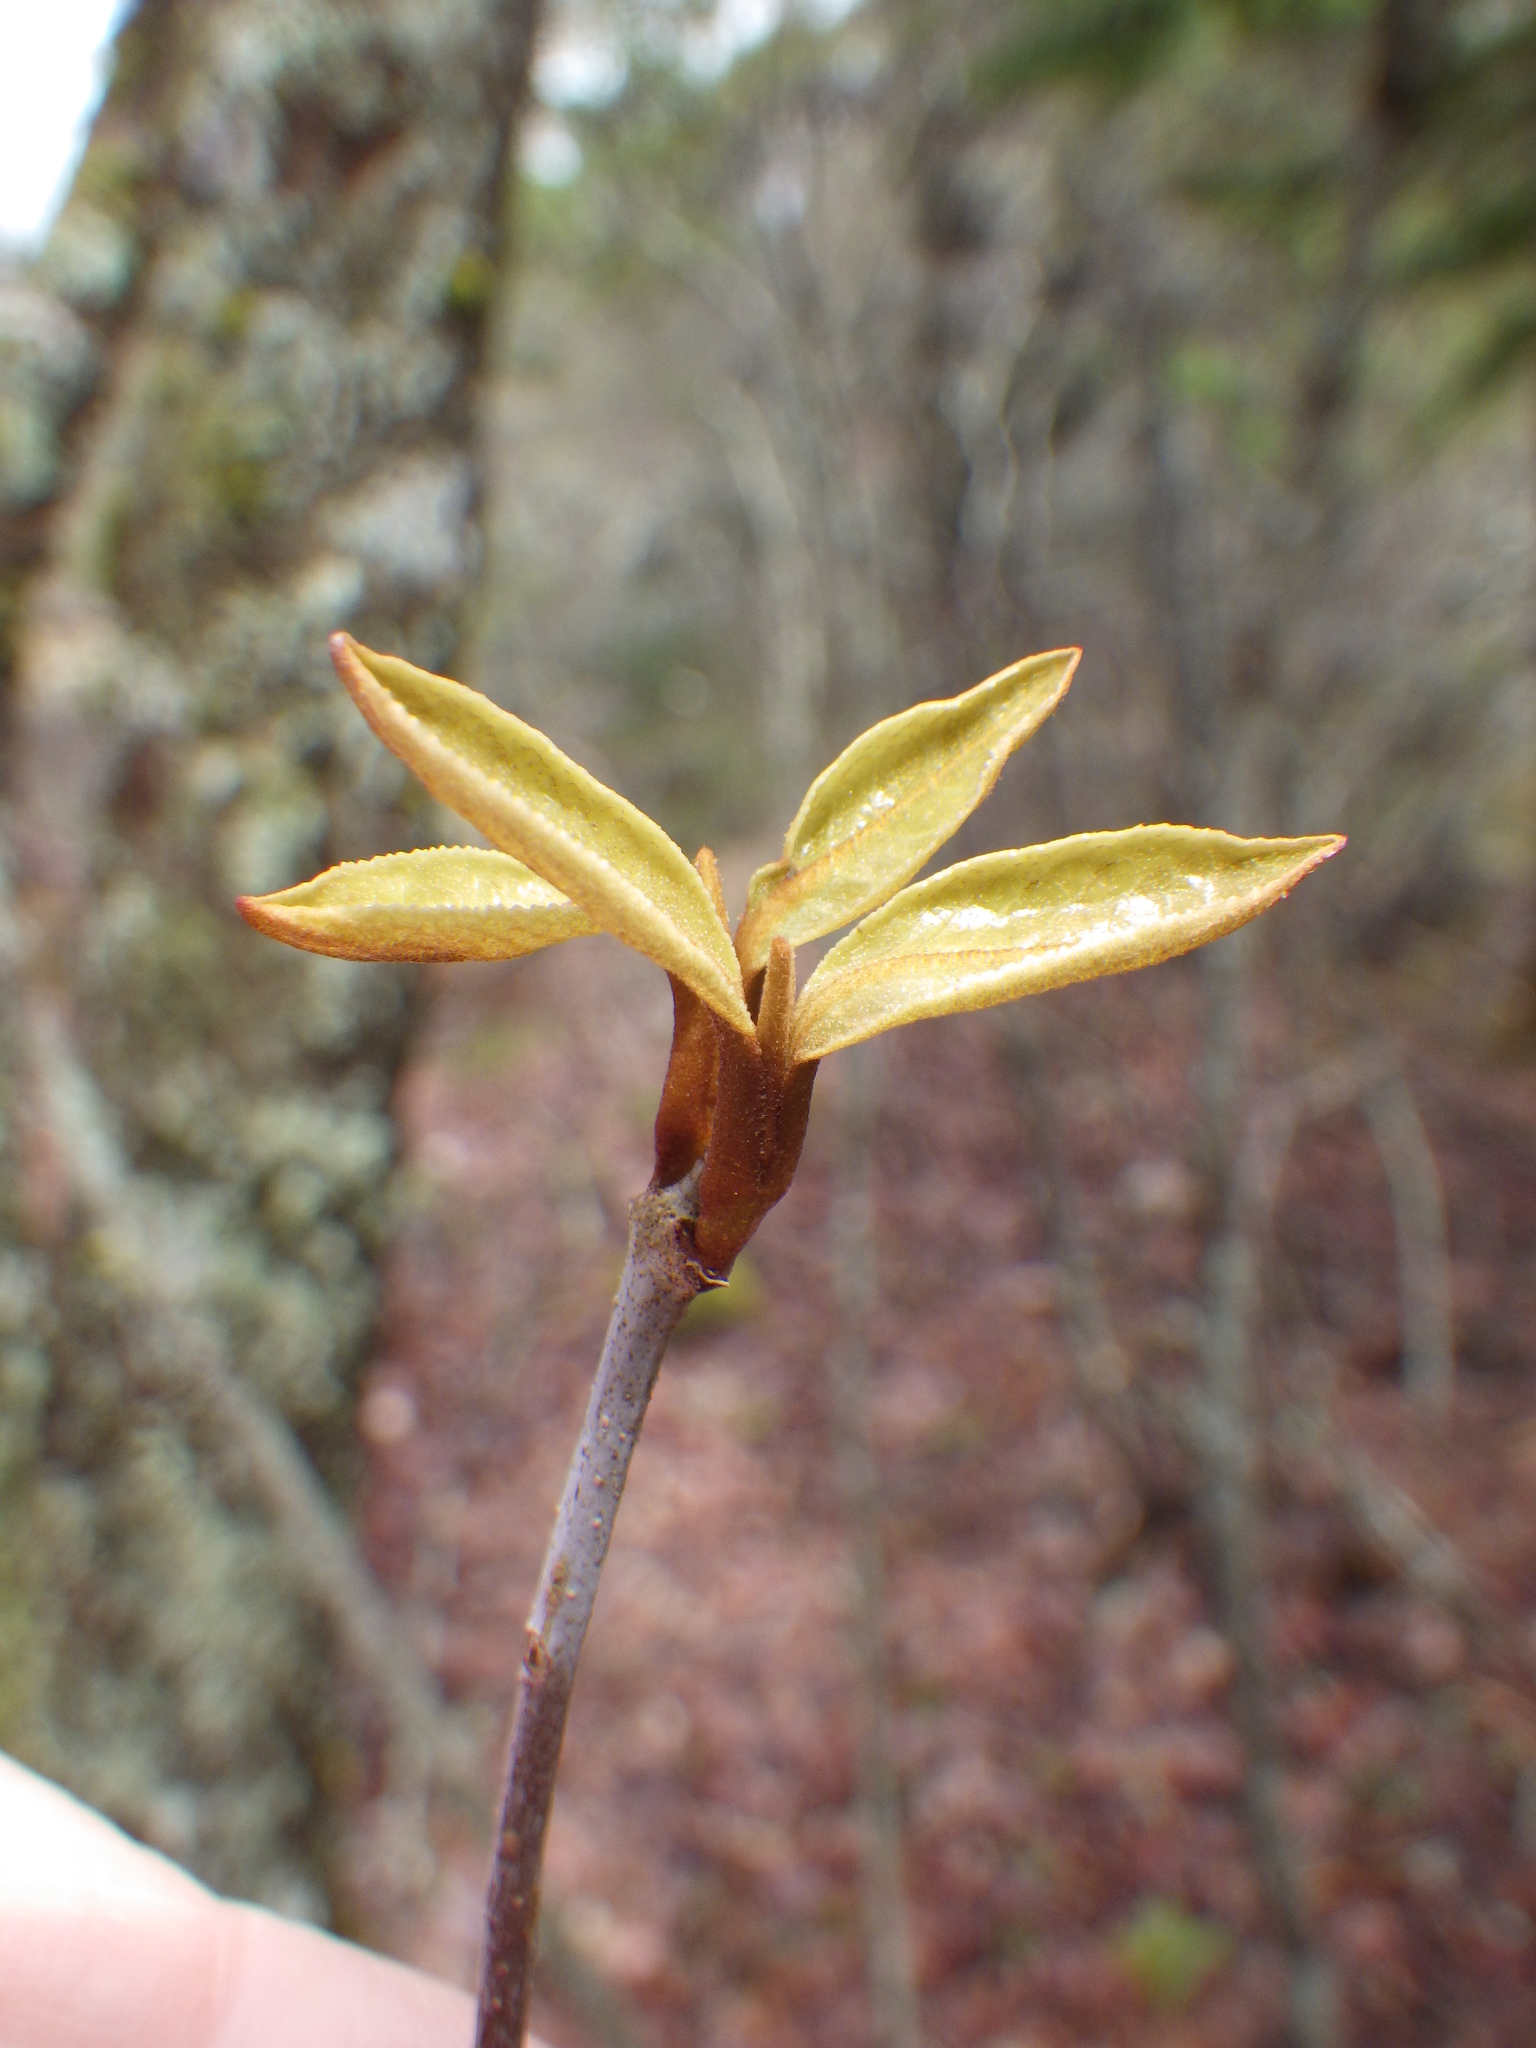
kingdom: Plantae
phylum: Tracheophyta
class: Magnoliopsida
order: Dipsacales
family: Viburnaceae
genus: Viburnum
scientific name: Viburnum cassinoides
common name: Swamp haw
